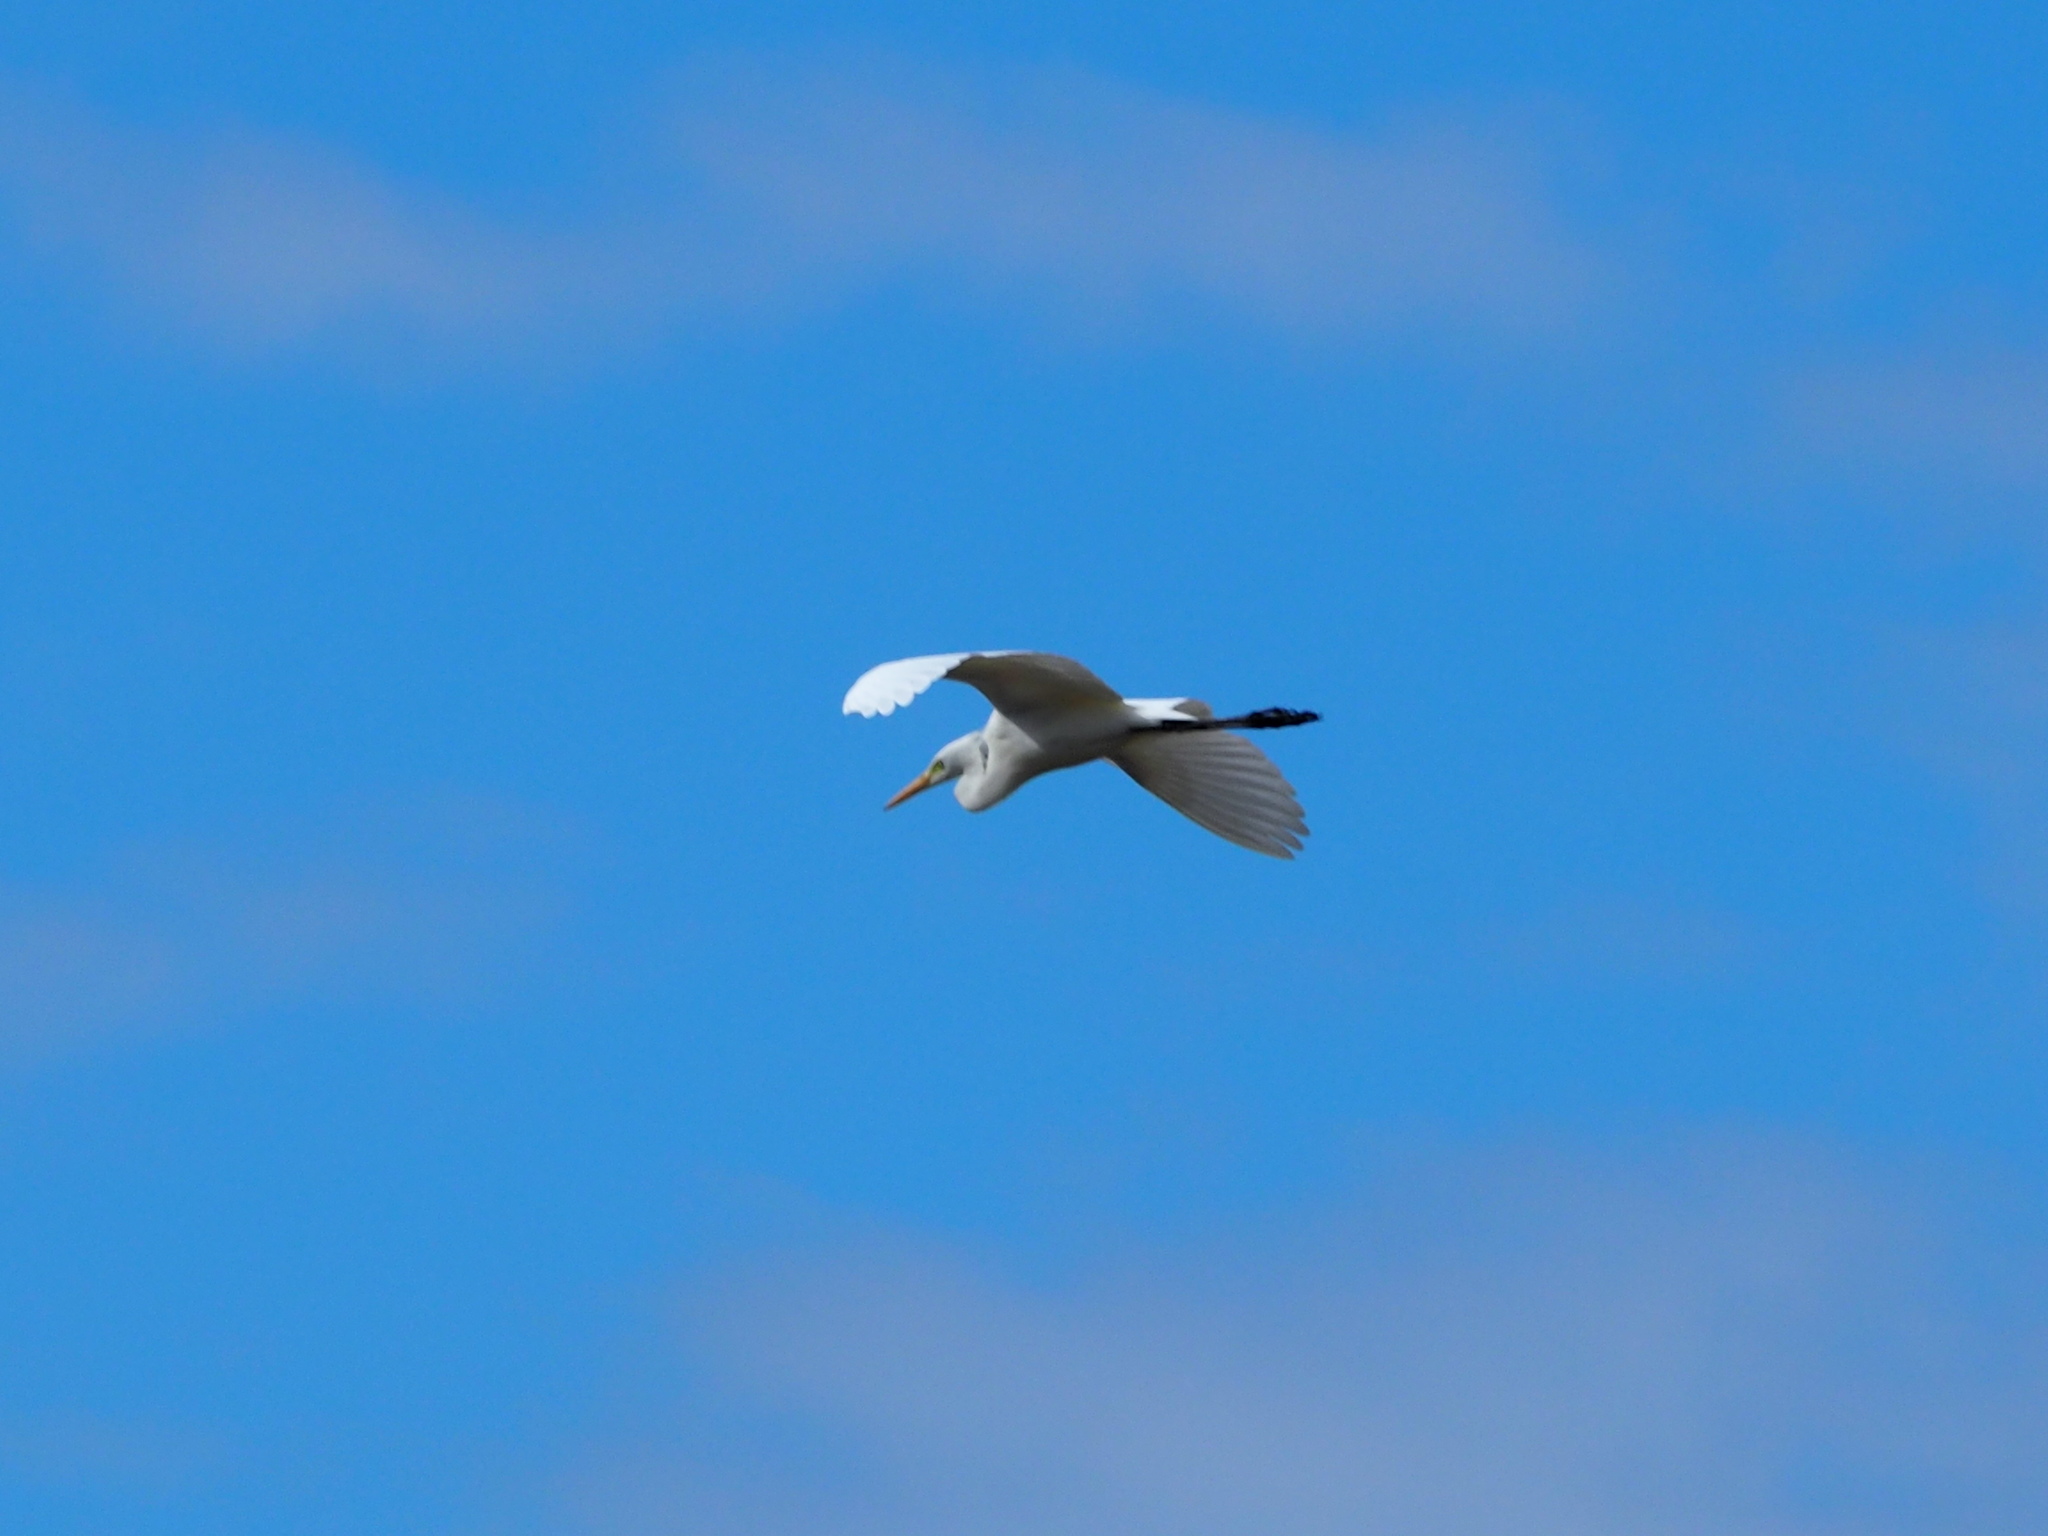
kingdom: Animalia
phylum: Chordata
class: Aves
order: Pelecaniformes
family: Ardeidae
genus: Egretta
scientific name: Egretta intermedia
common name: Intermediate egret
